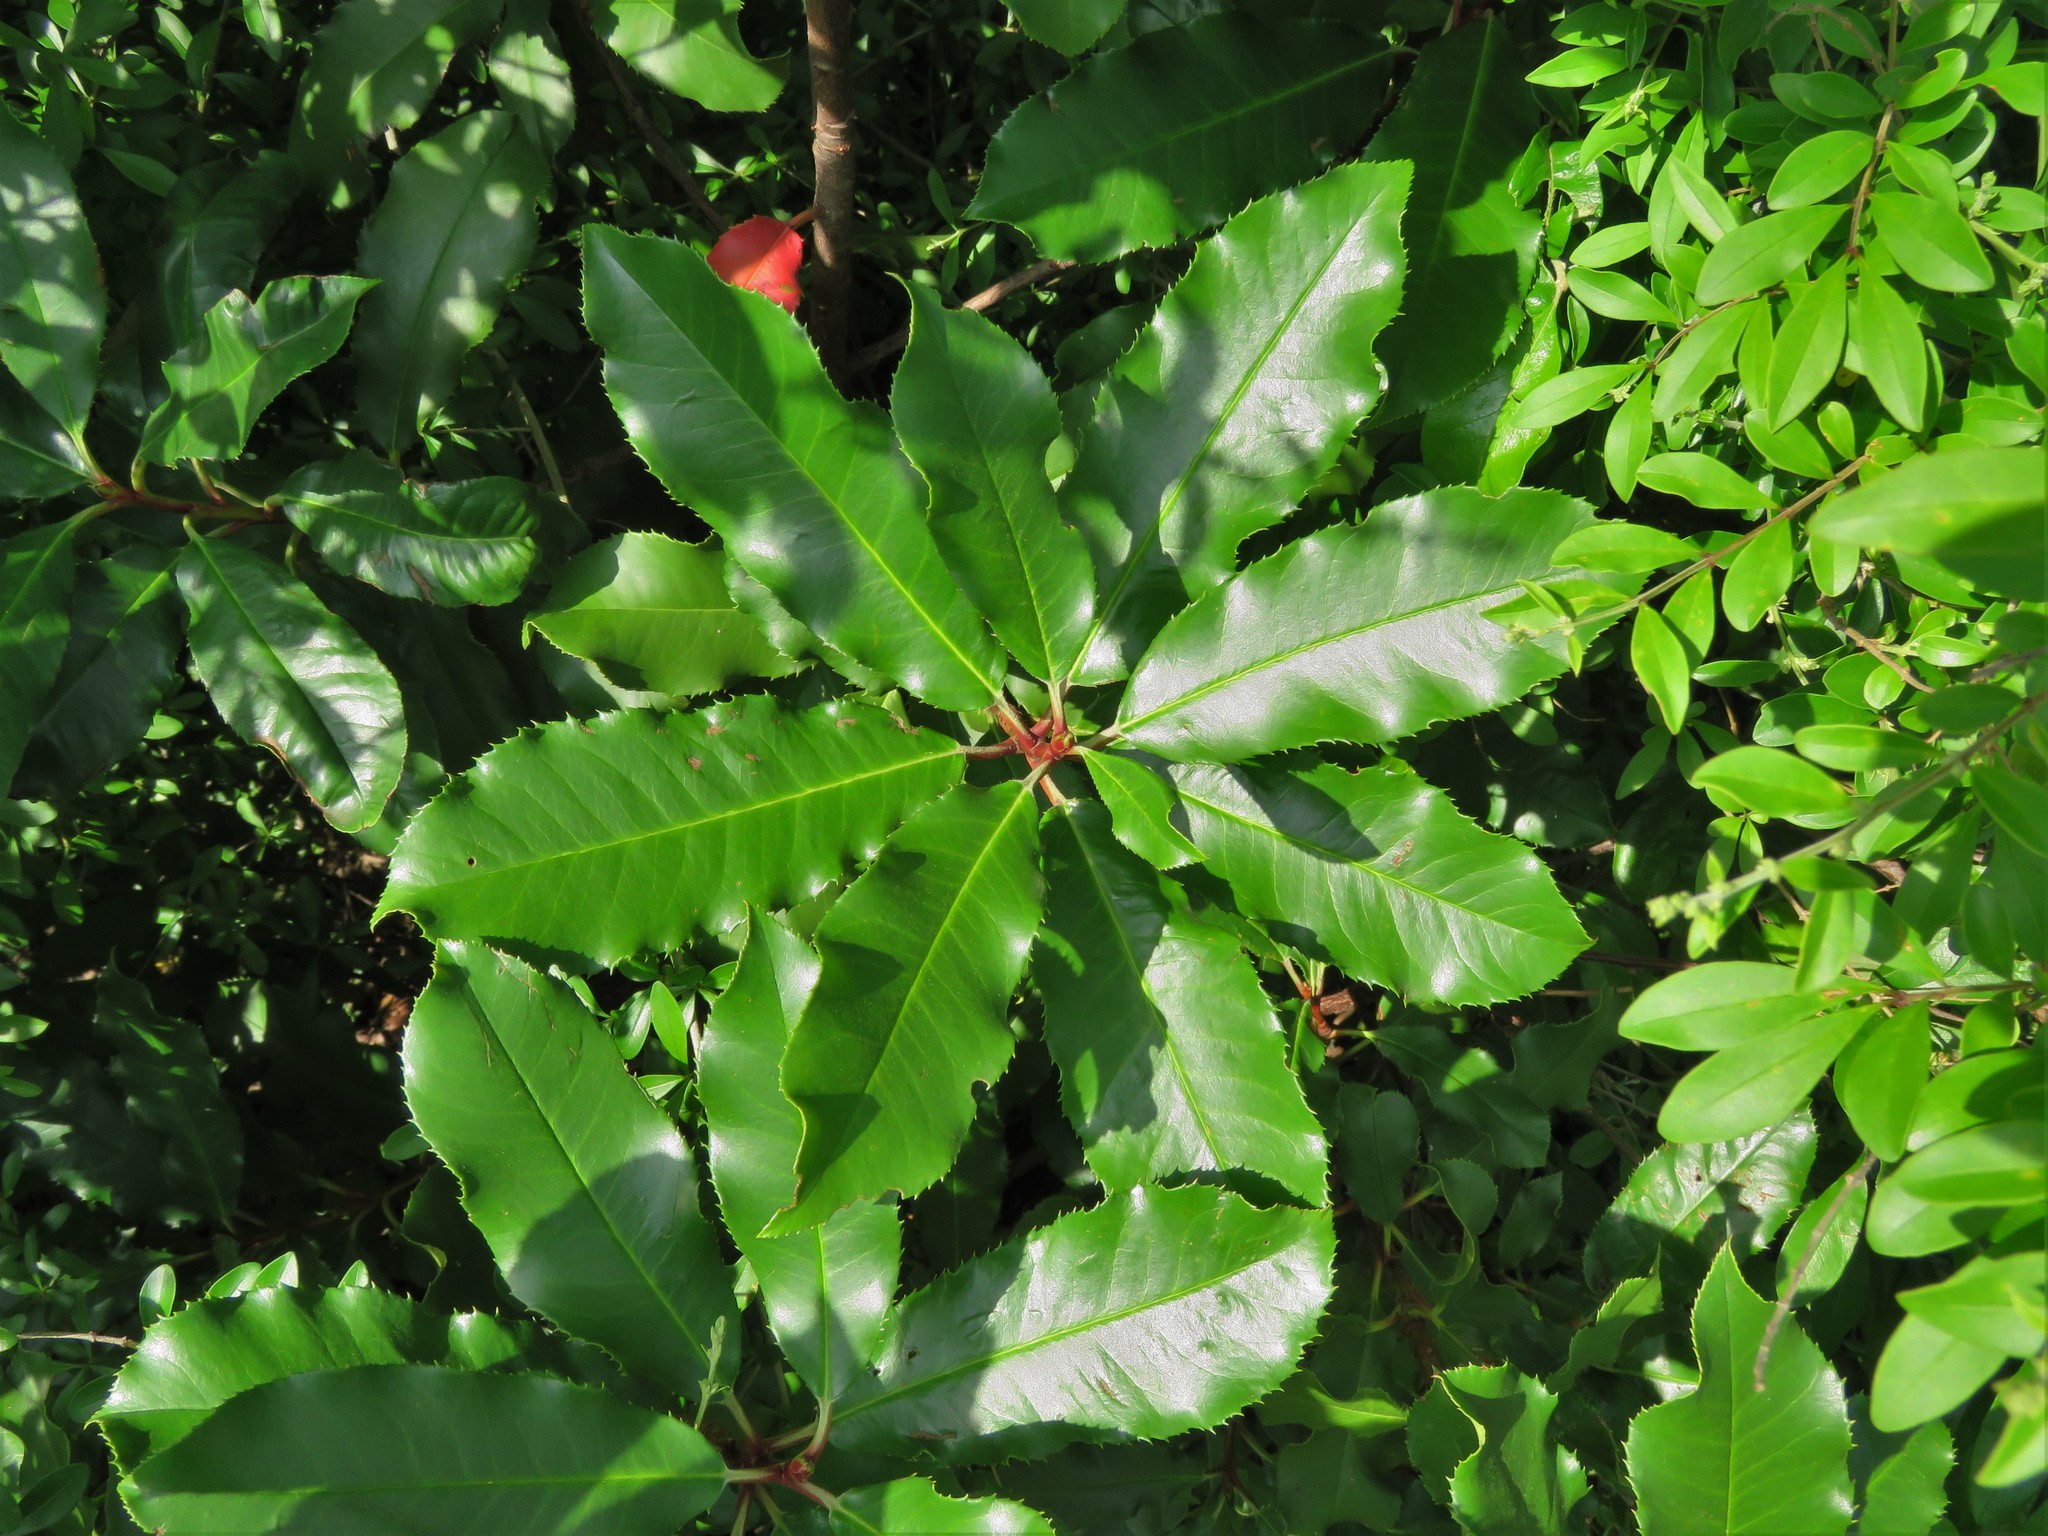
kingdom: Plantae
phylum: Tracheophyta
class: Magnoliopsida
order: Rosales
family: Rosaceae
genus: Photinia
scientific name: Photinia serratifolia
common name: Taiwanese photinia
